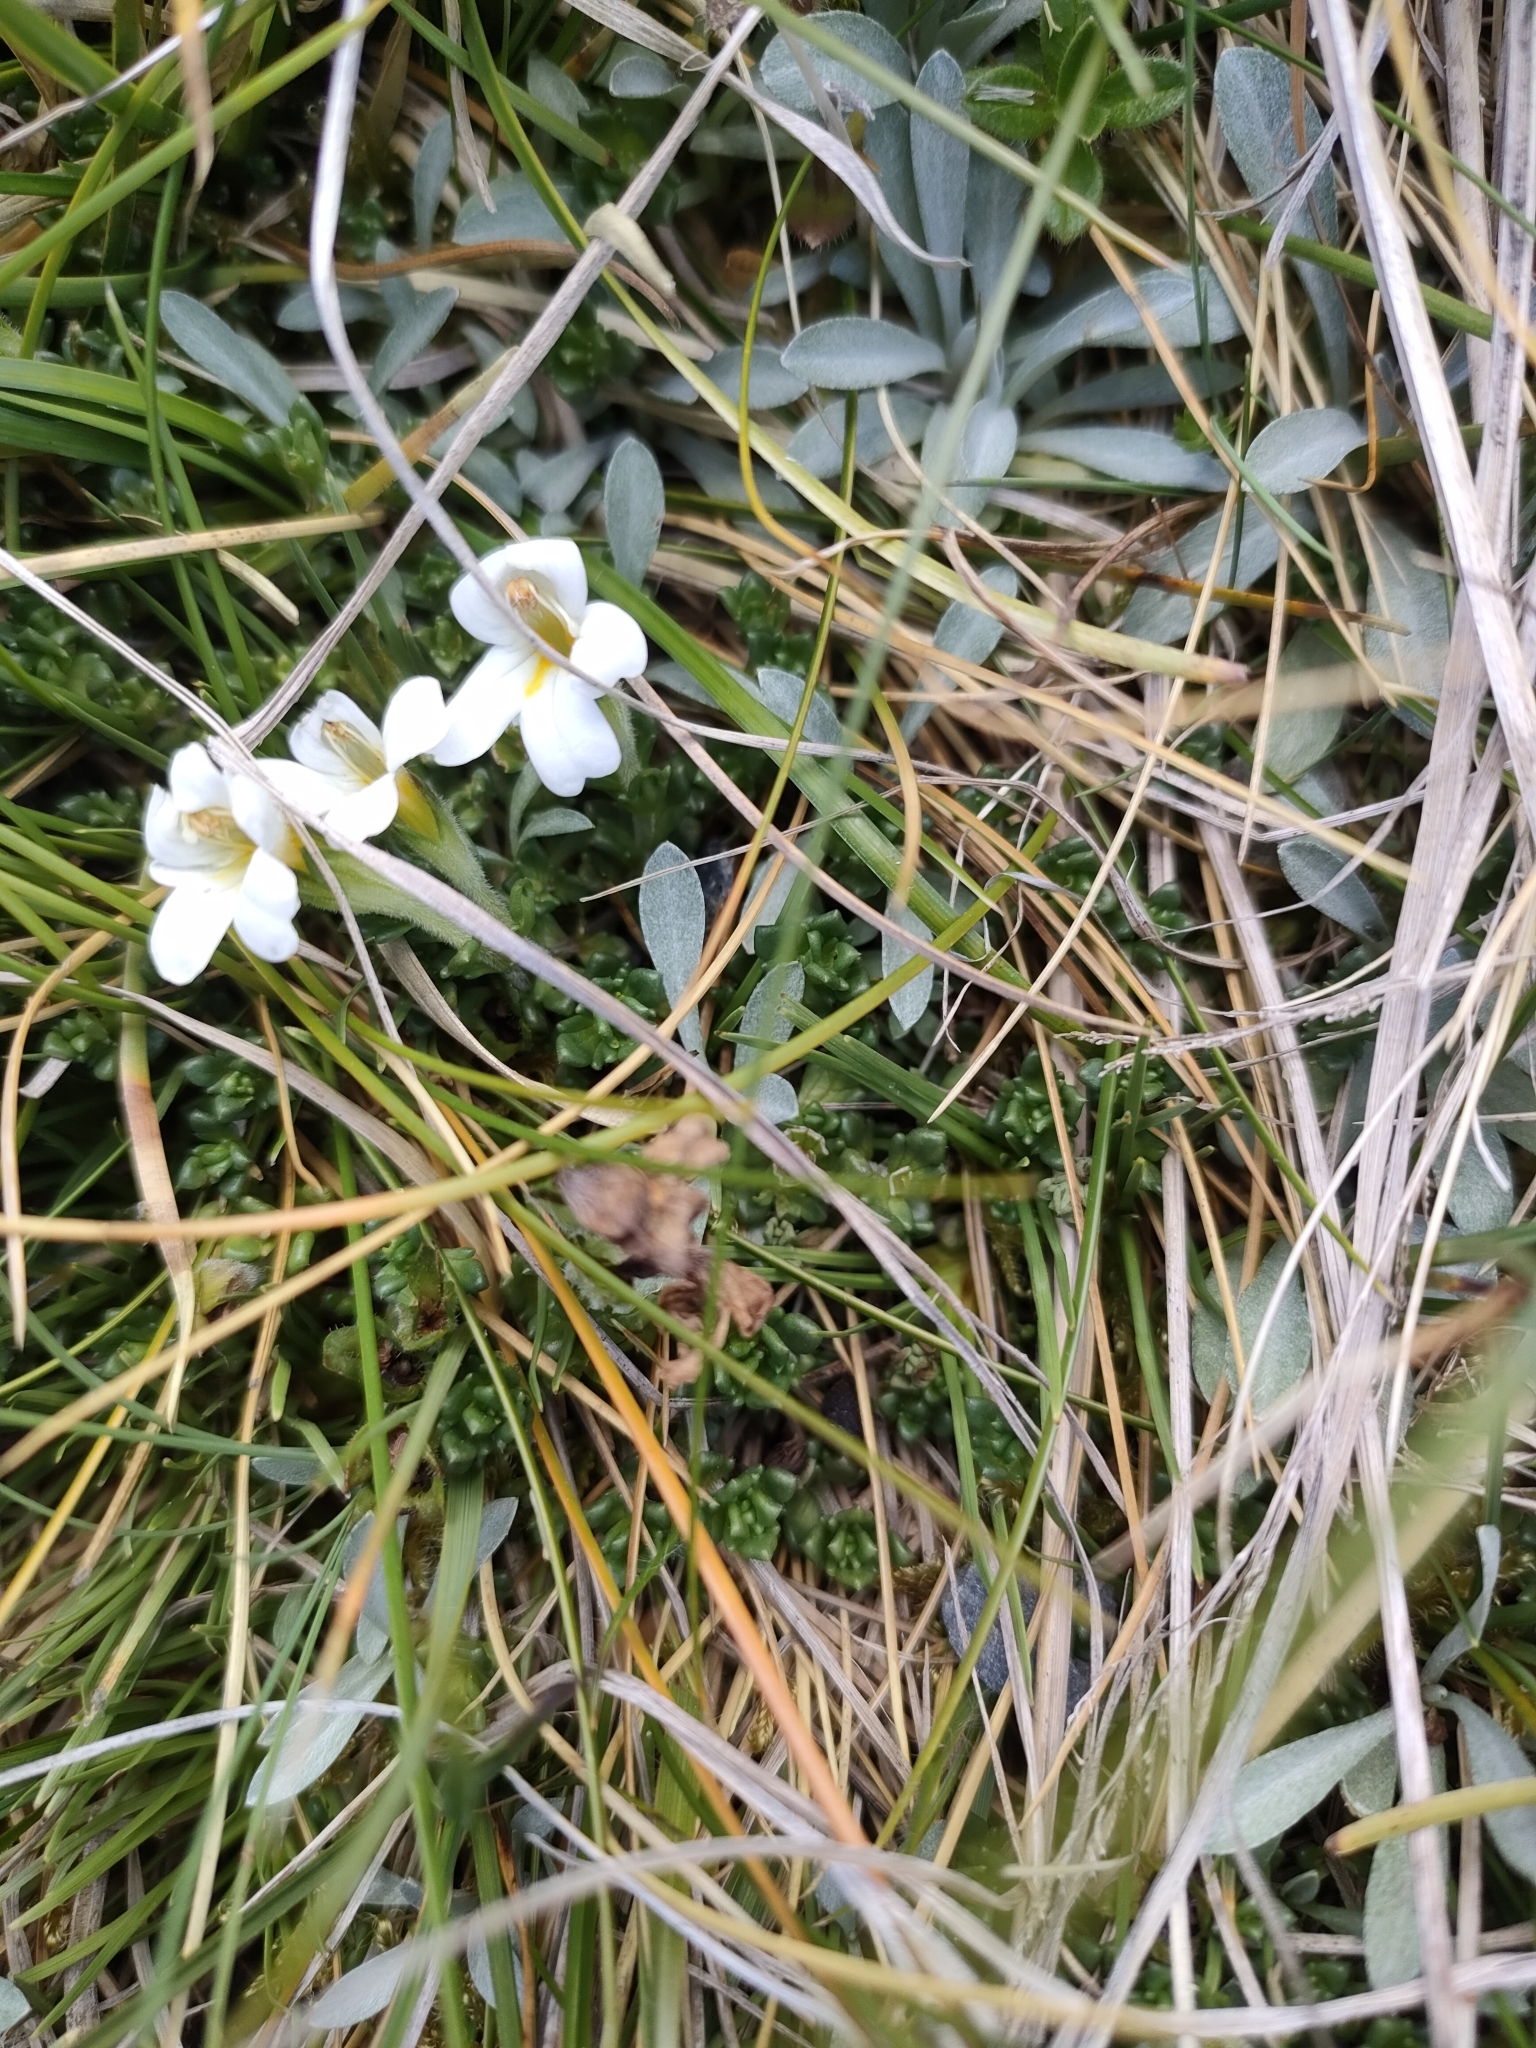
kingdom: Plantae
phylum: Tracheophyta
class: Magnoliopsida
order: Lamiales
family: Orobanchaceae
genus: Euphrasia
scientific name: Euphrasia revoluta
